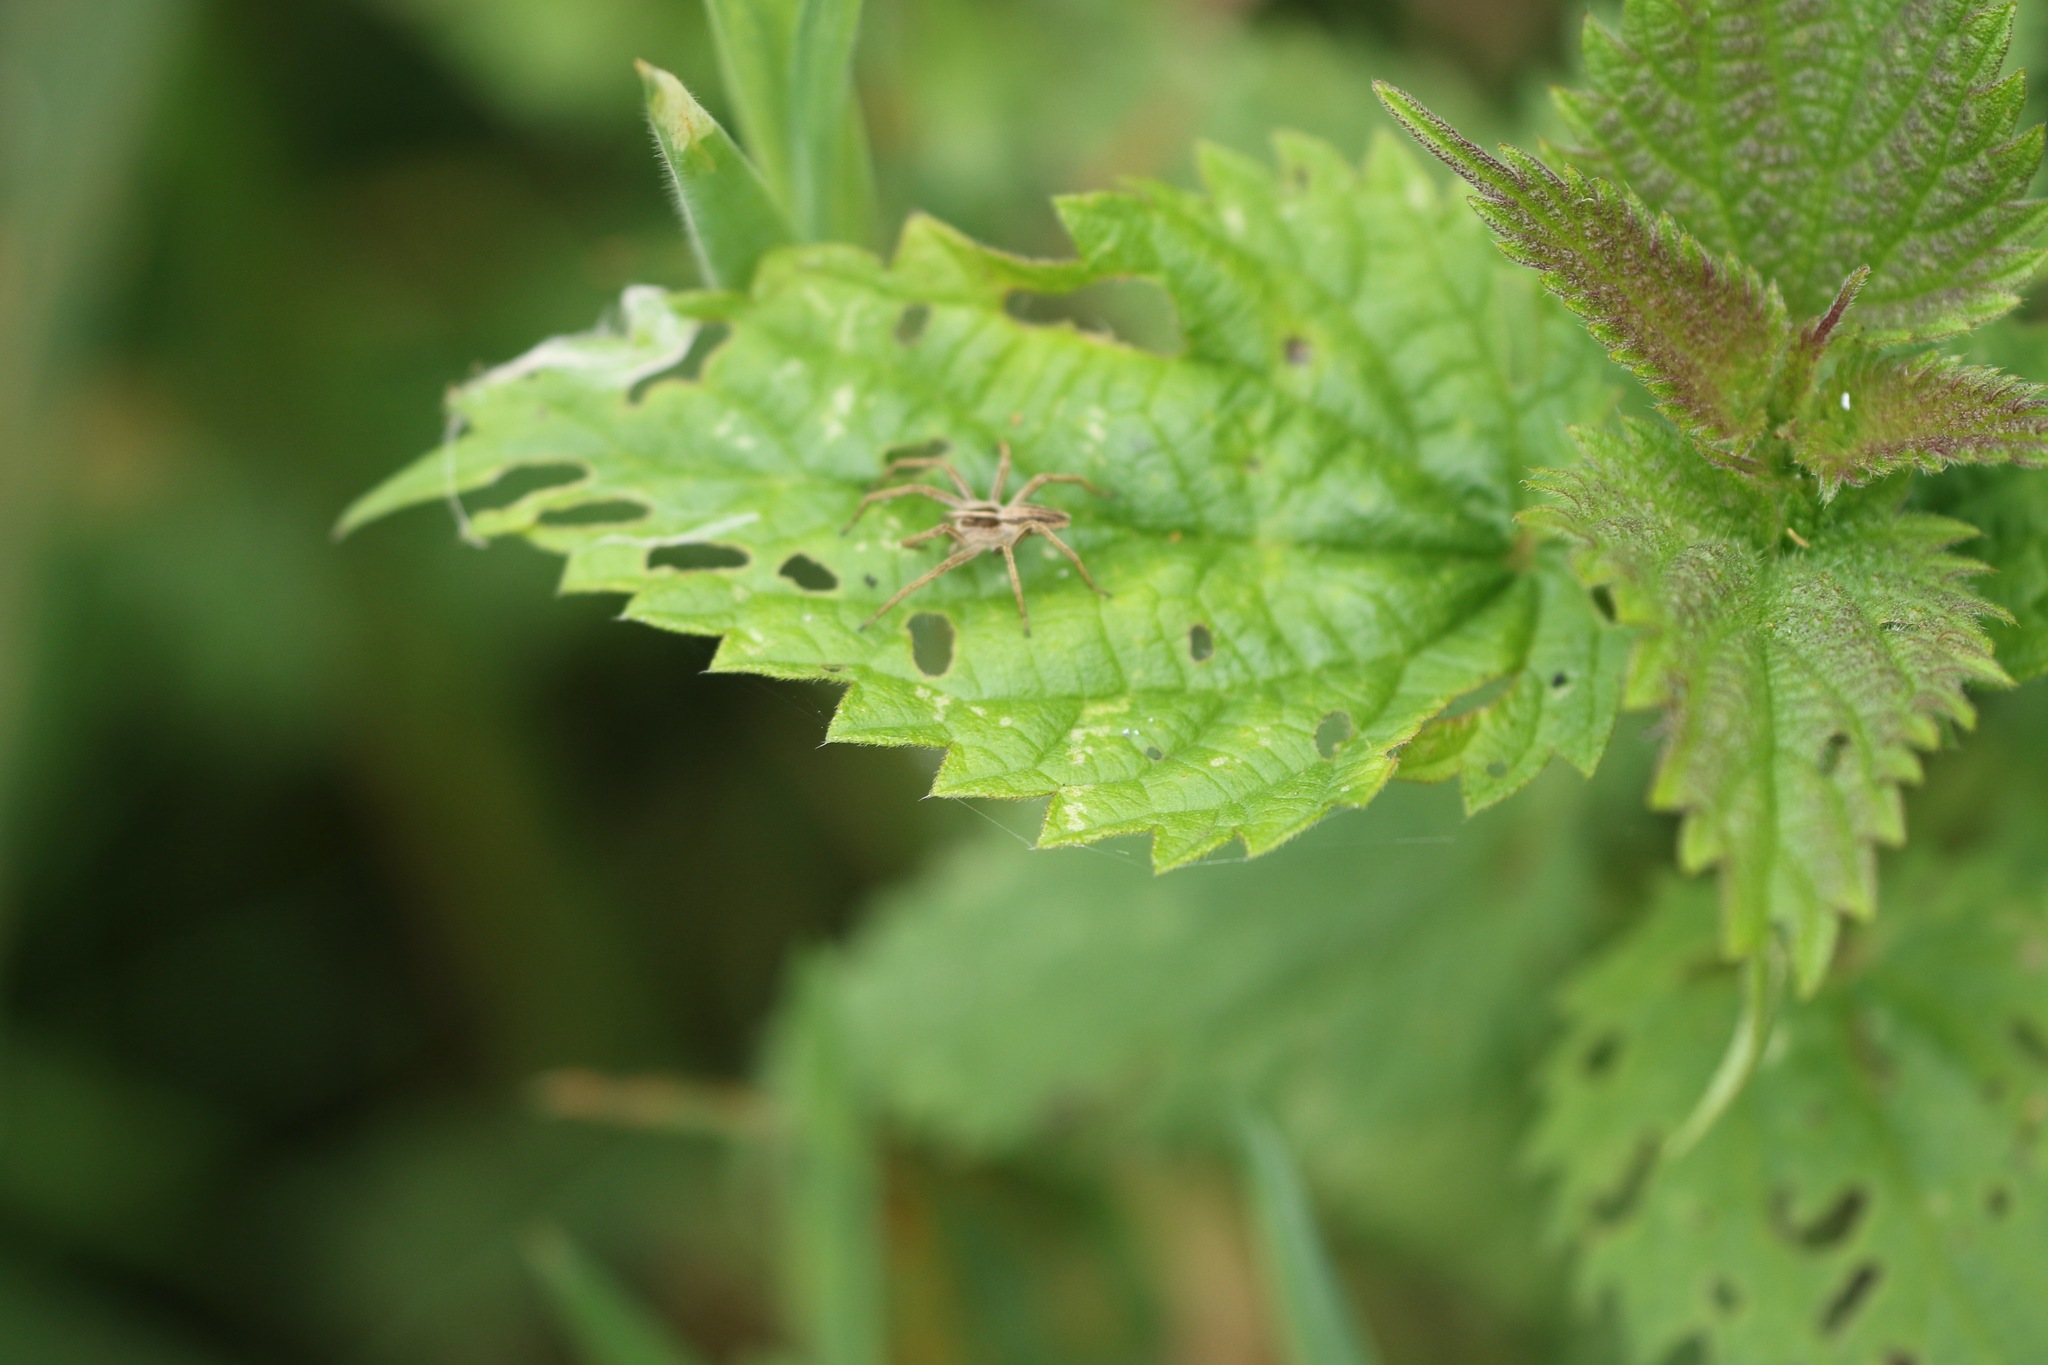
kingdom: Animalia
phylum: Arthropoda
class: Arachnida
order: Araneae
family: Pisauridae
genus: Pisaura
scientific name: Pisaura mirabilis
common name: Tent spider
